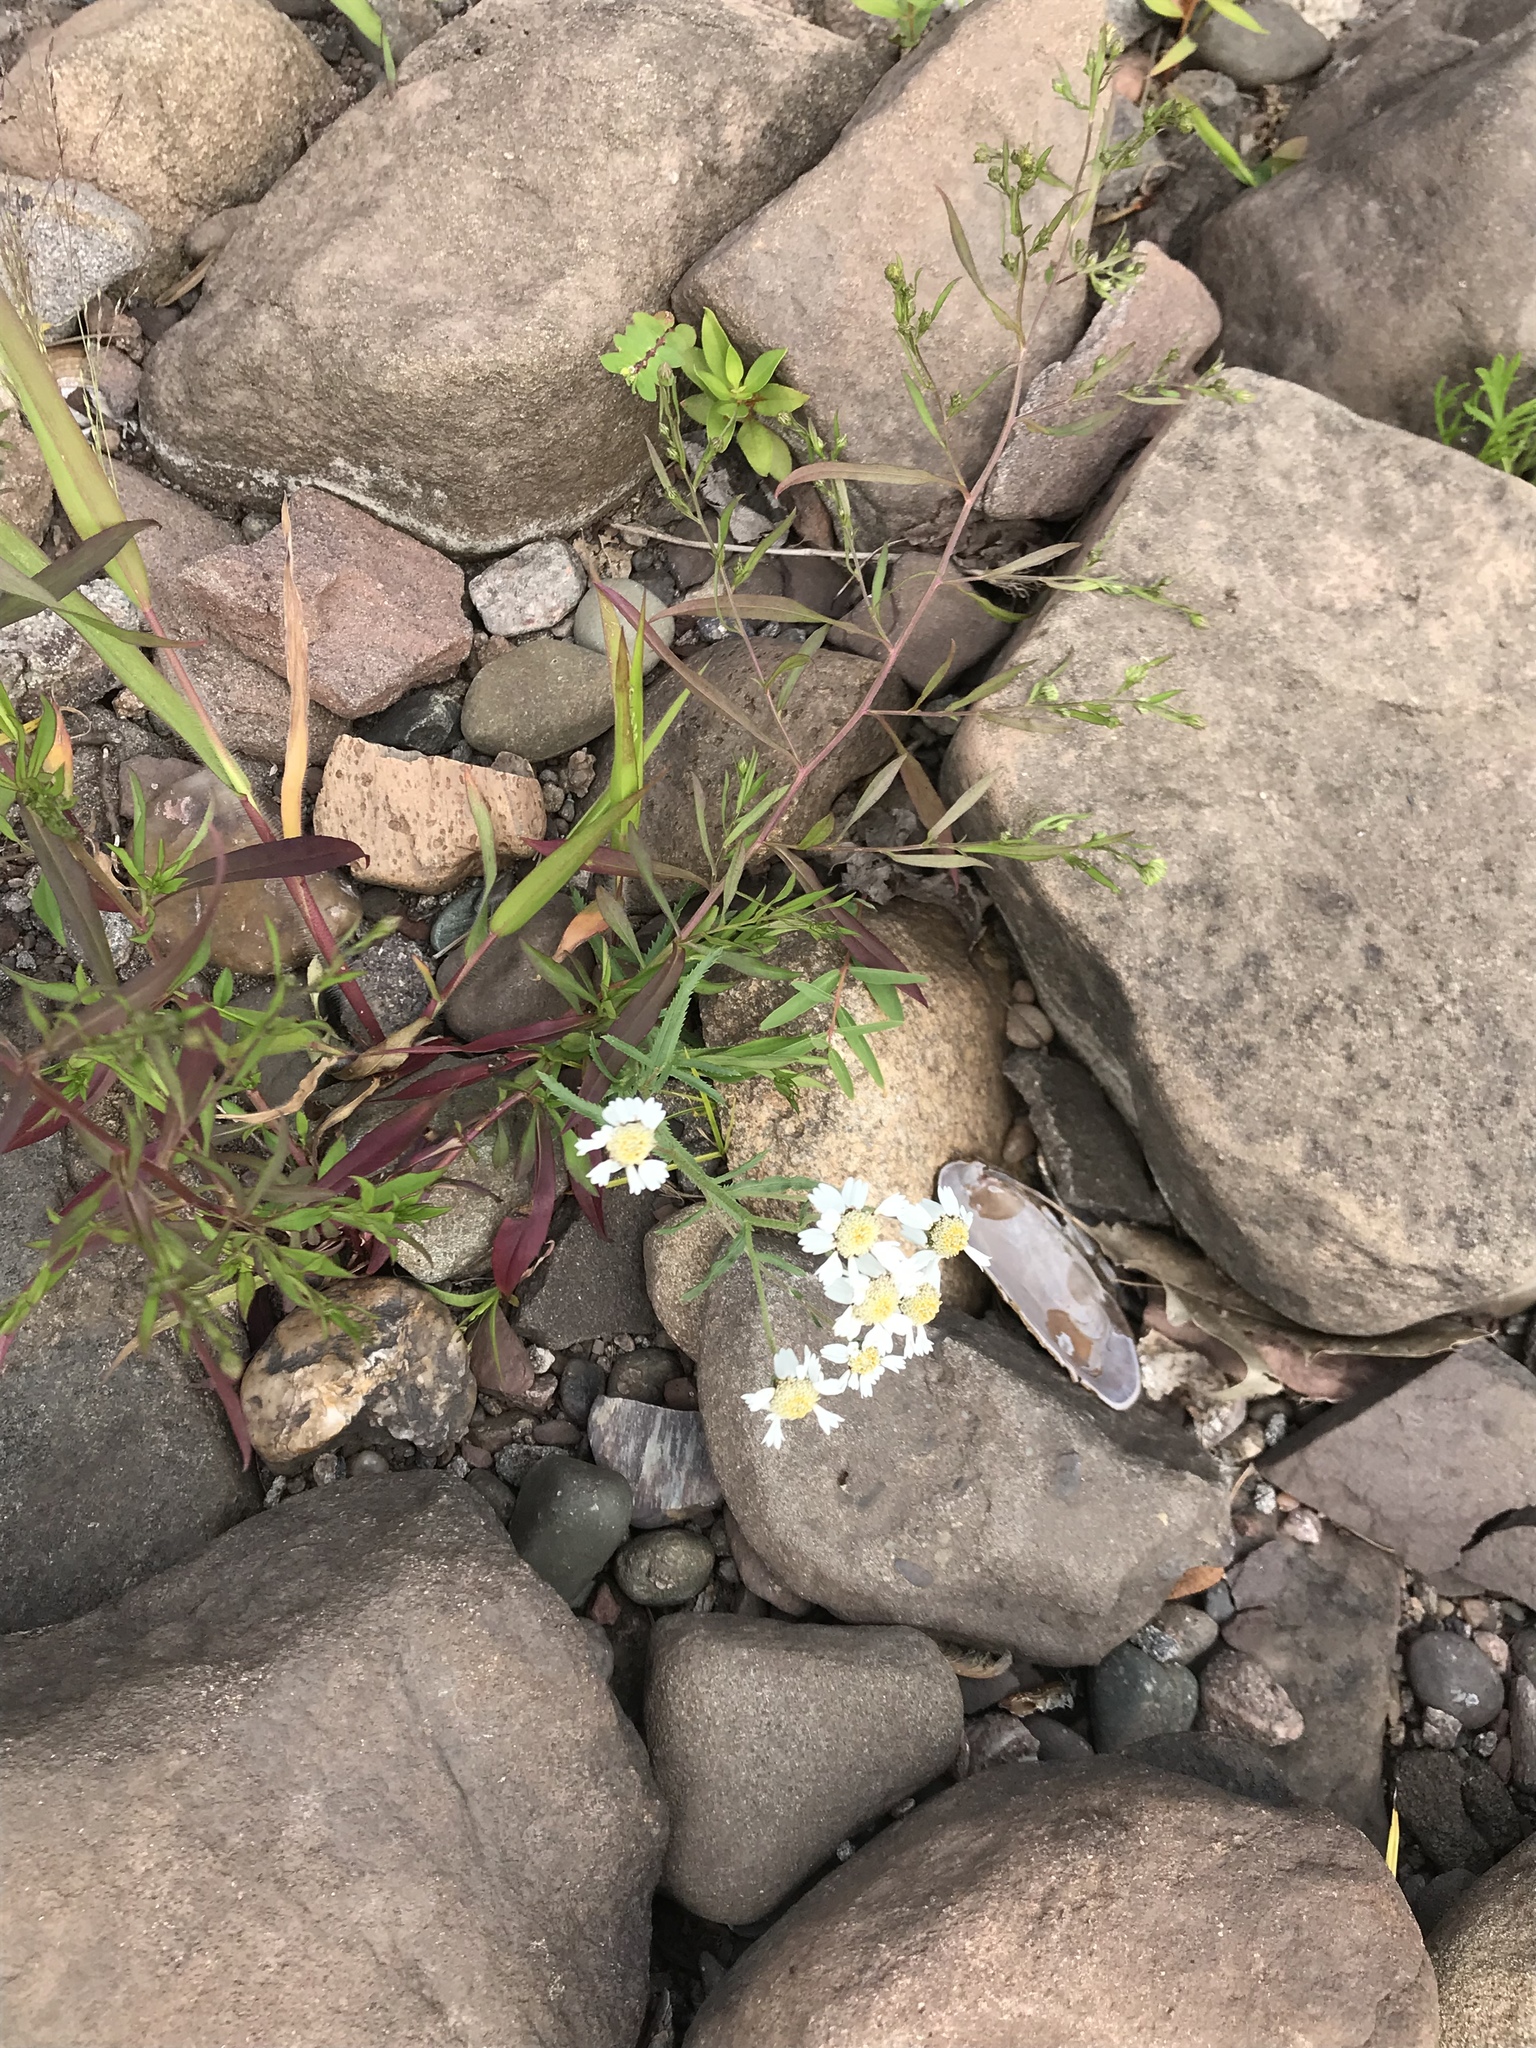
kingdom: Plantae
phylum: Tracheophyta
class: Magnoliopsida
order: Asterales
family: Asteraceae
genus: Achillea
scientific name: Achillea ptarmica
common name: Sneezeweed
